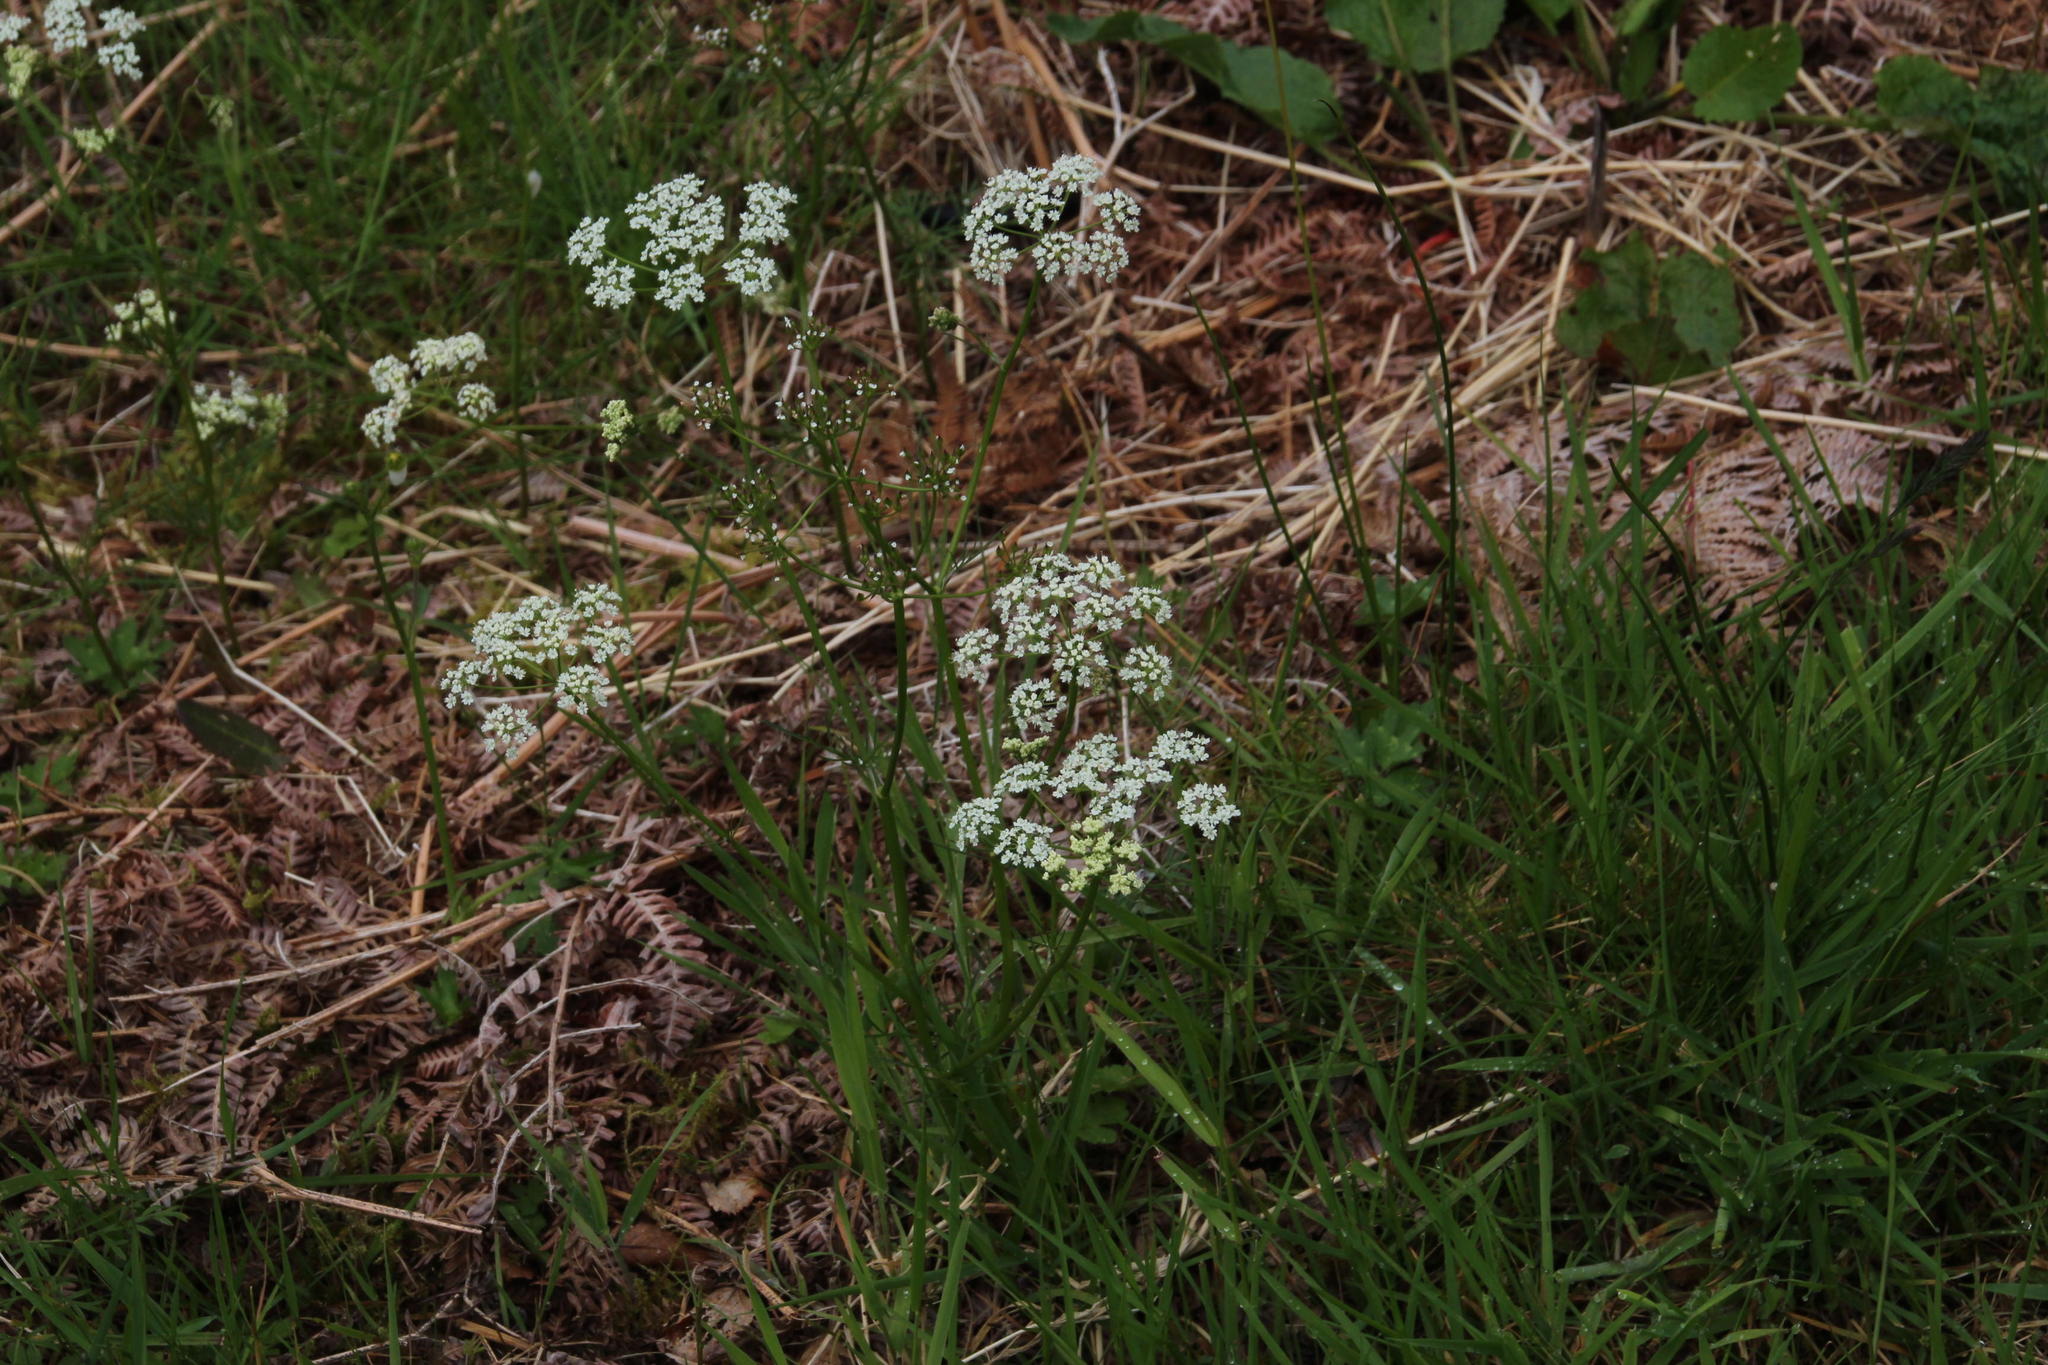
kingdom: Plantae
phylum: Tracheophyta
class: Magnoliopsida
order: Apiales
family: Apiaceae
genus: Conopodium
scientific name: Conopodium majus
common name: Pignut
